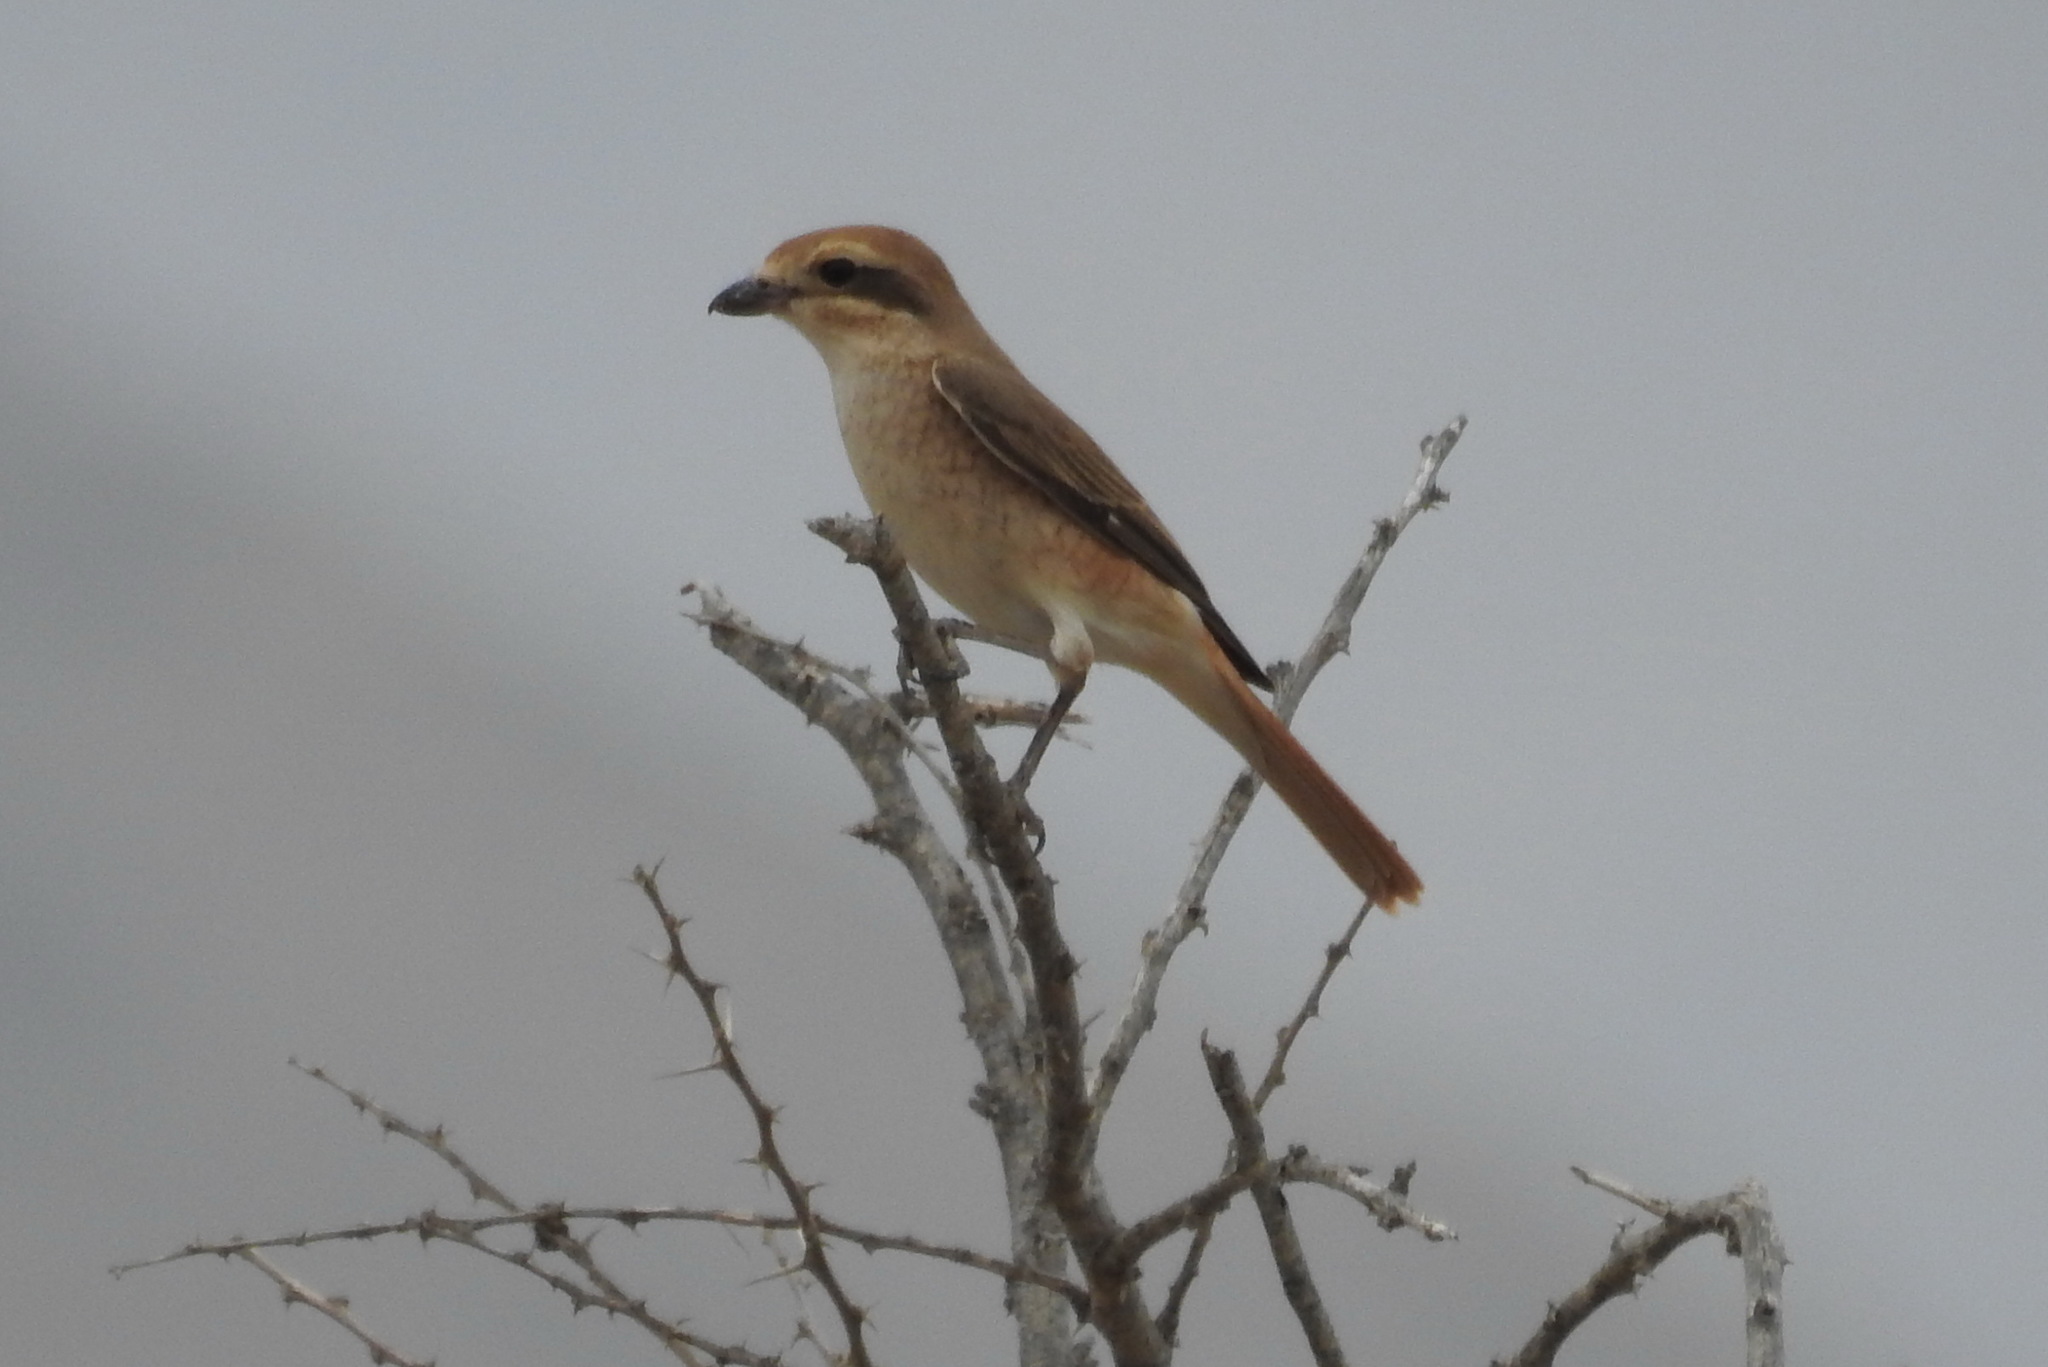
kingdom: Animalia
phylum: Chordata
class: Aves
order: Passeriformes
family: Laniidae
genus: Lanius
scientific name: Lanius isabellinus
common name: Isabelline shrike
